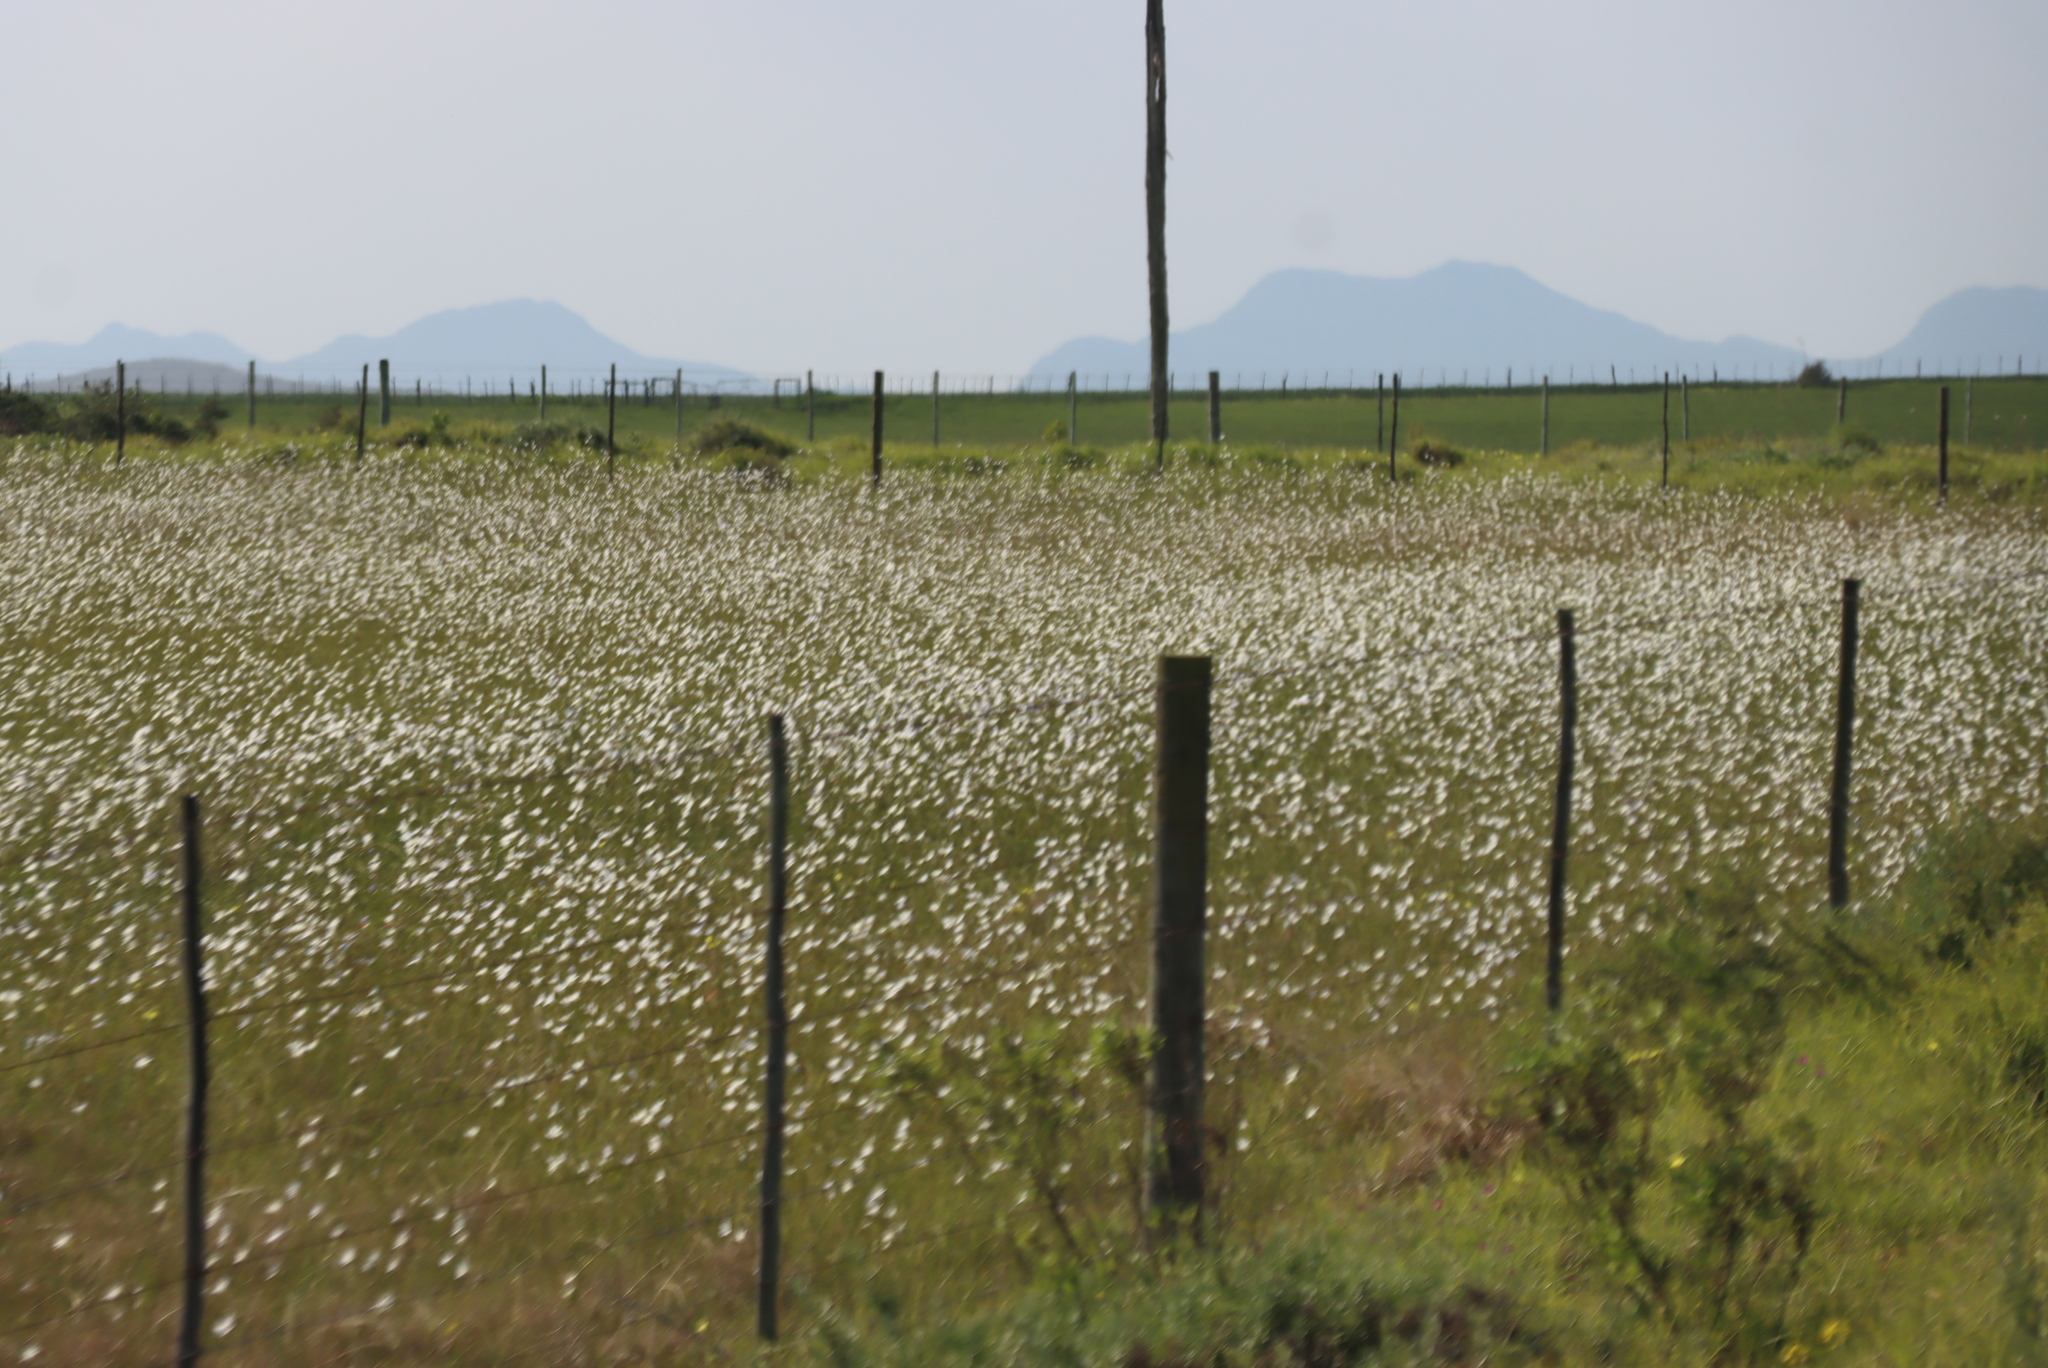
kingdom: Plantae
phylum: Tracheophyta
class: Liliopsida
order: Asparagales
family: Iridaceae
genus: Moraea
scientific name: Moraea polyanthos
